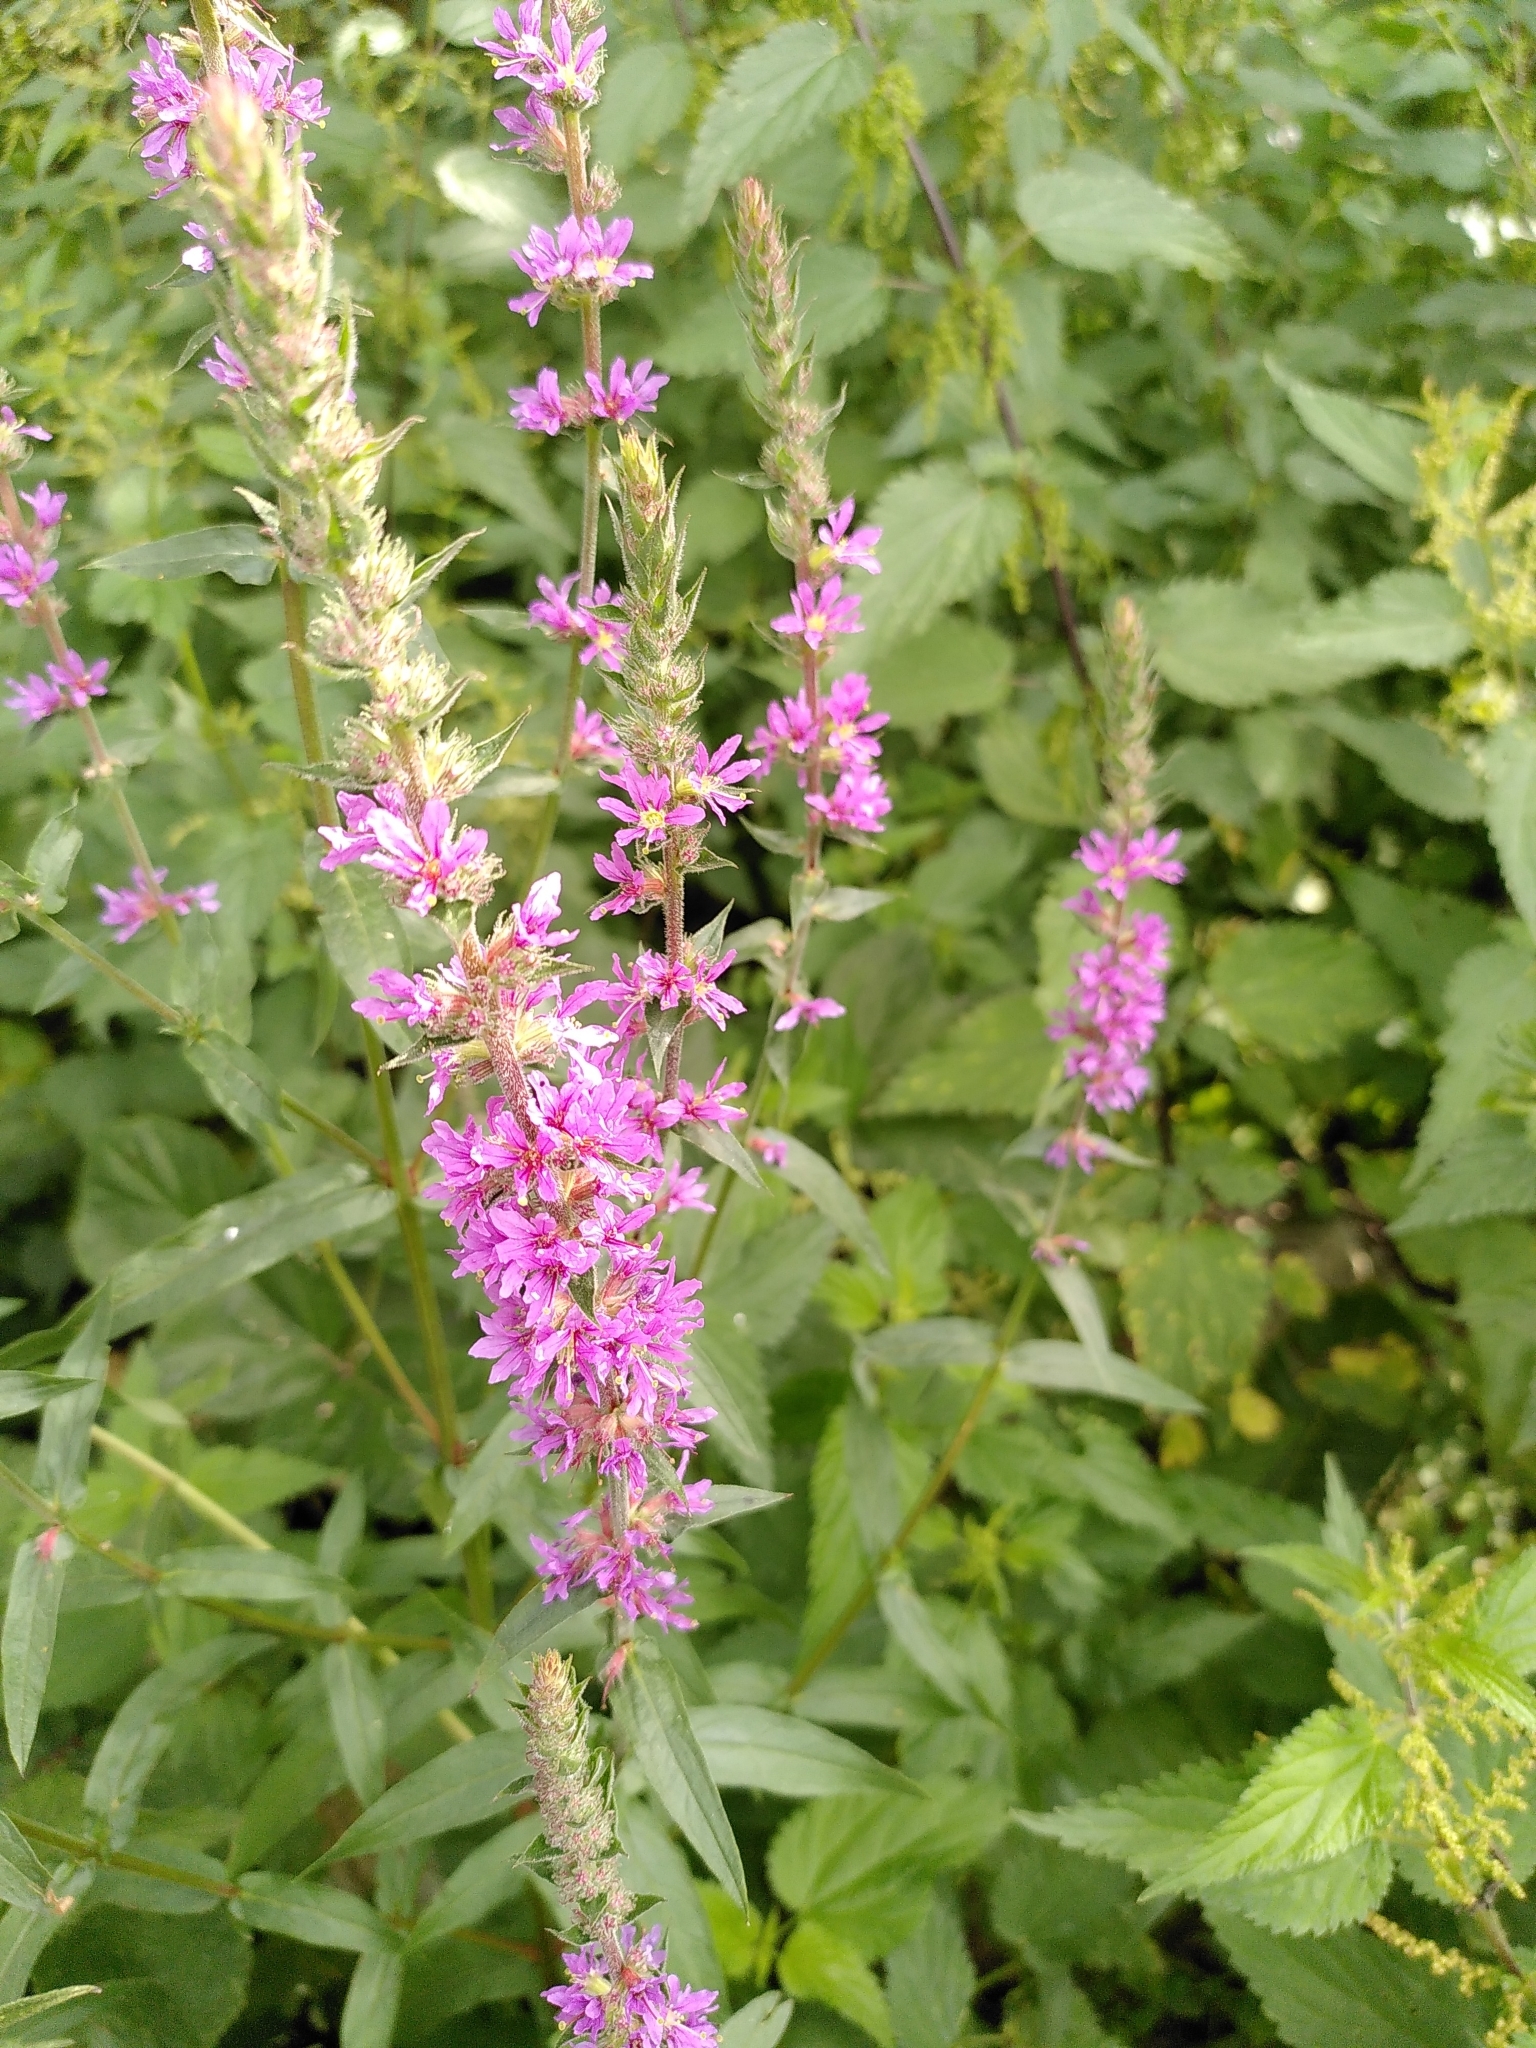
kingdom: Plantae
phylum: Tracheophyta
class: Magnoliopsida
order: Myrtales
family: Lythraceae
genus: Lythrum
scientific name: Lythrum salicaria
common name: Purple loosestrife
